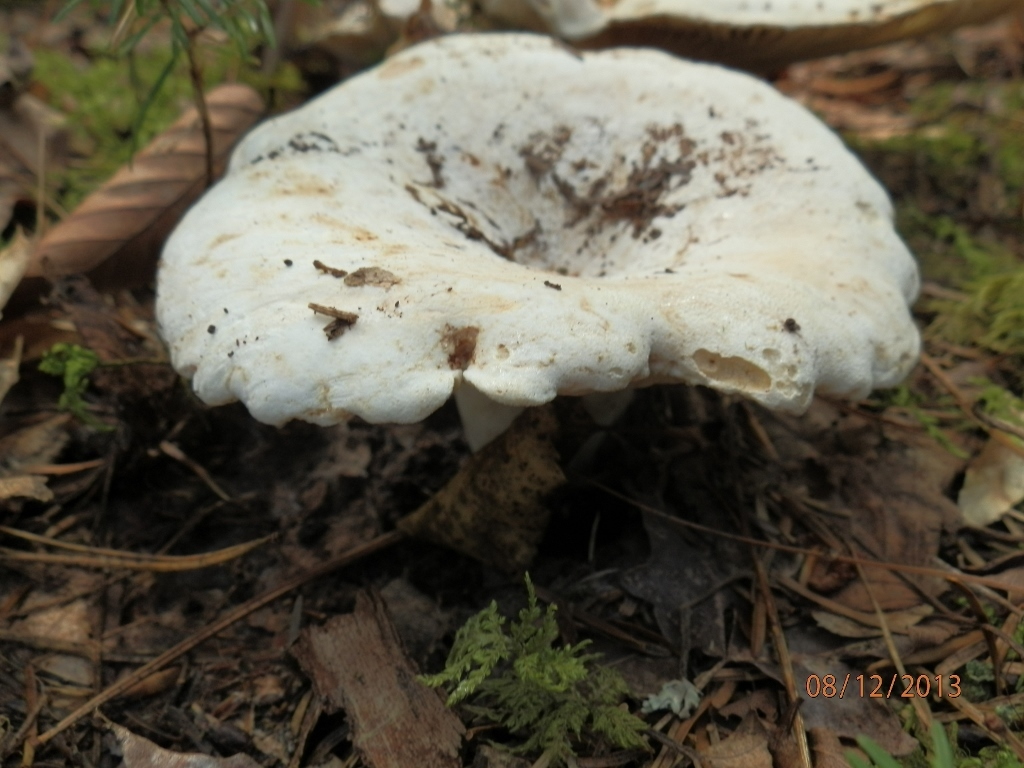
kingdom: Fungi
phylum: Basidiomycota
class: Agaricomycetes
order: Russulales
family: Russulaceae
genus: Lactifluus
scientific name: Lactifluus subvellereus
